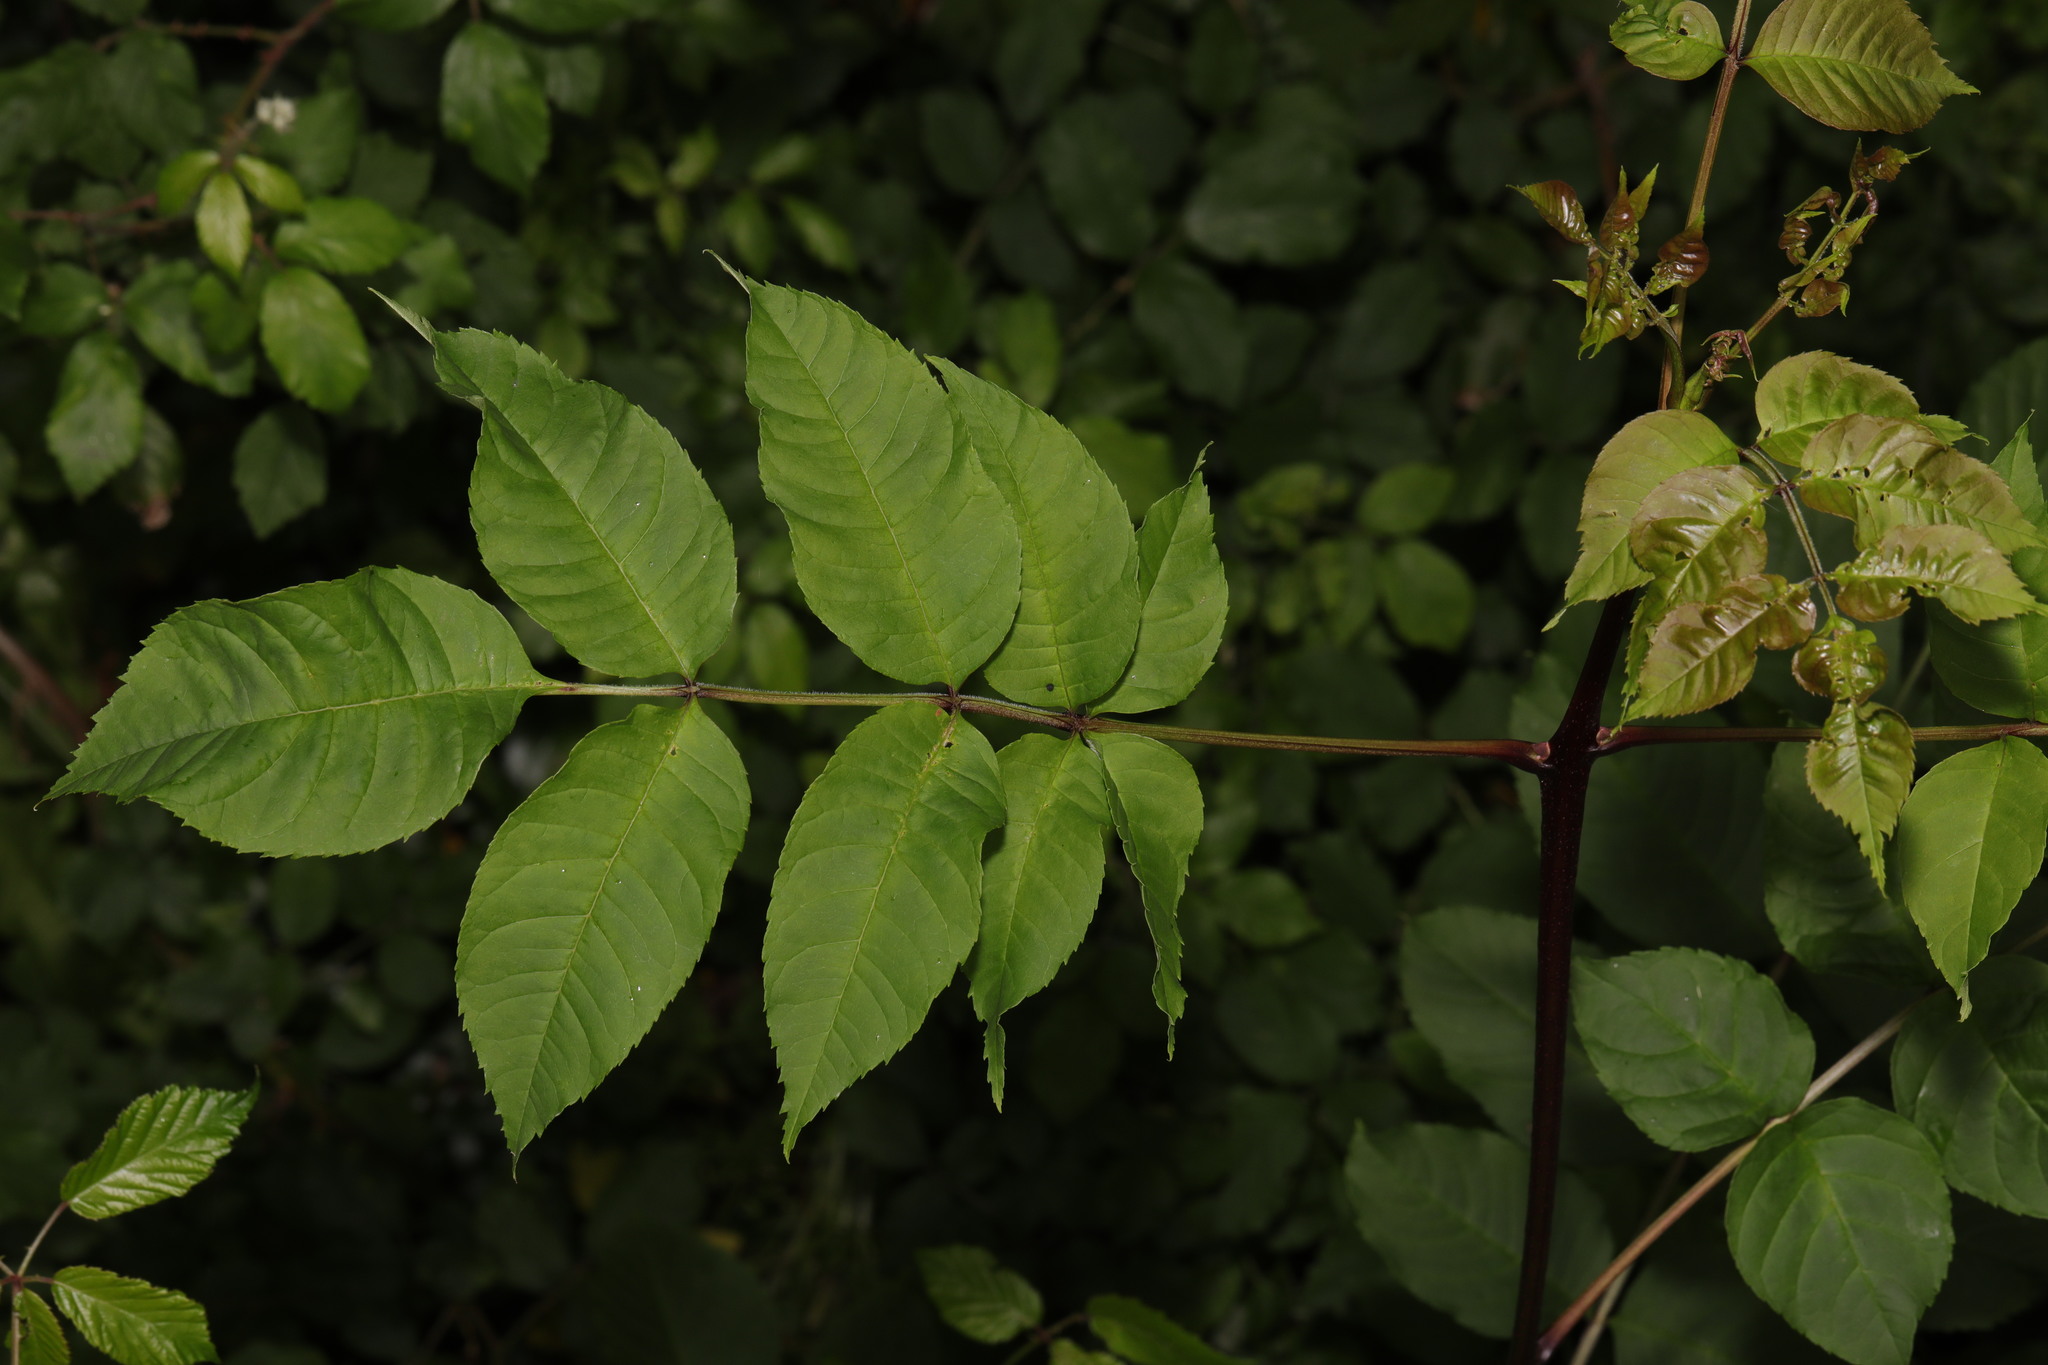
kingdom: Plantae
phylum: Tracheophyta
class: Magnoliopsida
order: Lamiales
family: Oleaceae
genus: Fraxinus
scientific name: Fraxinus excelsior
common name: European ash
